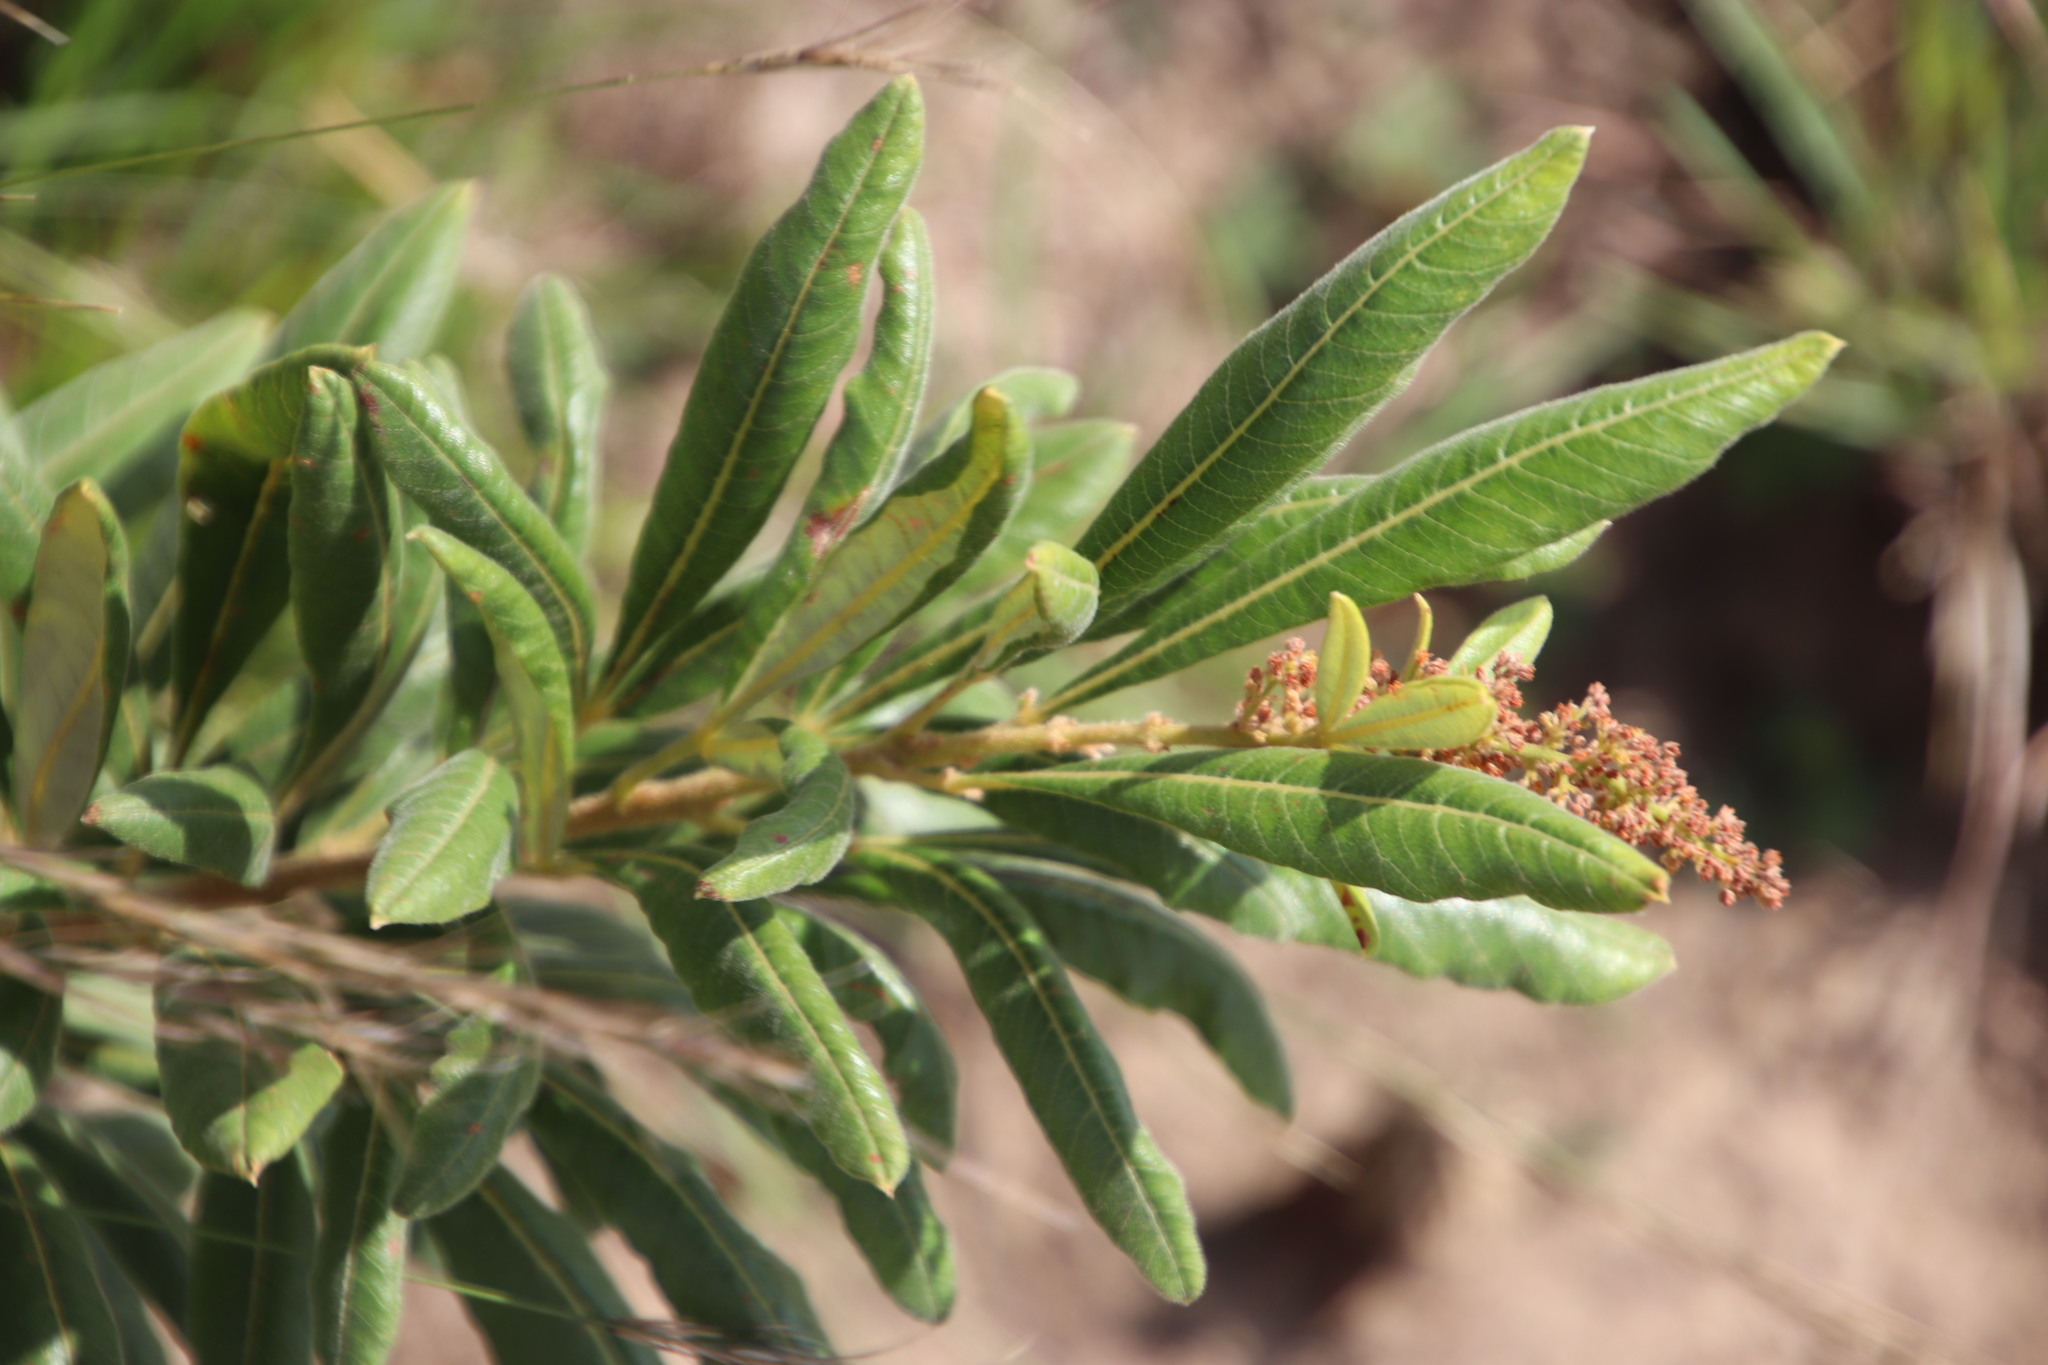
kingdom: Plantae
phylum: Tracheophyta
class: Magnoliopsida
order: Sapindales
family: Anacardiaceae
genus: Searsia
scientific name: Searsia discolor
